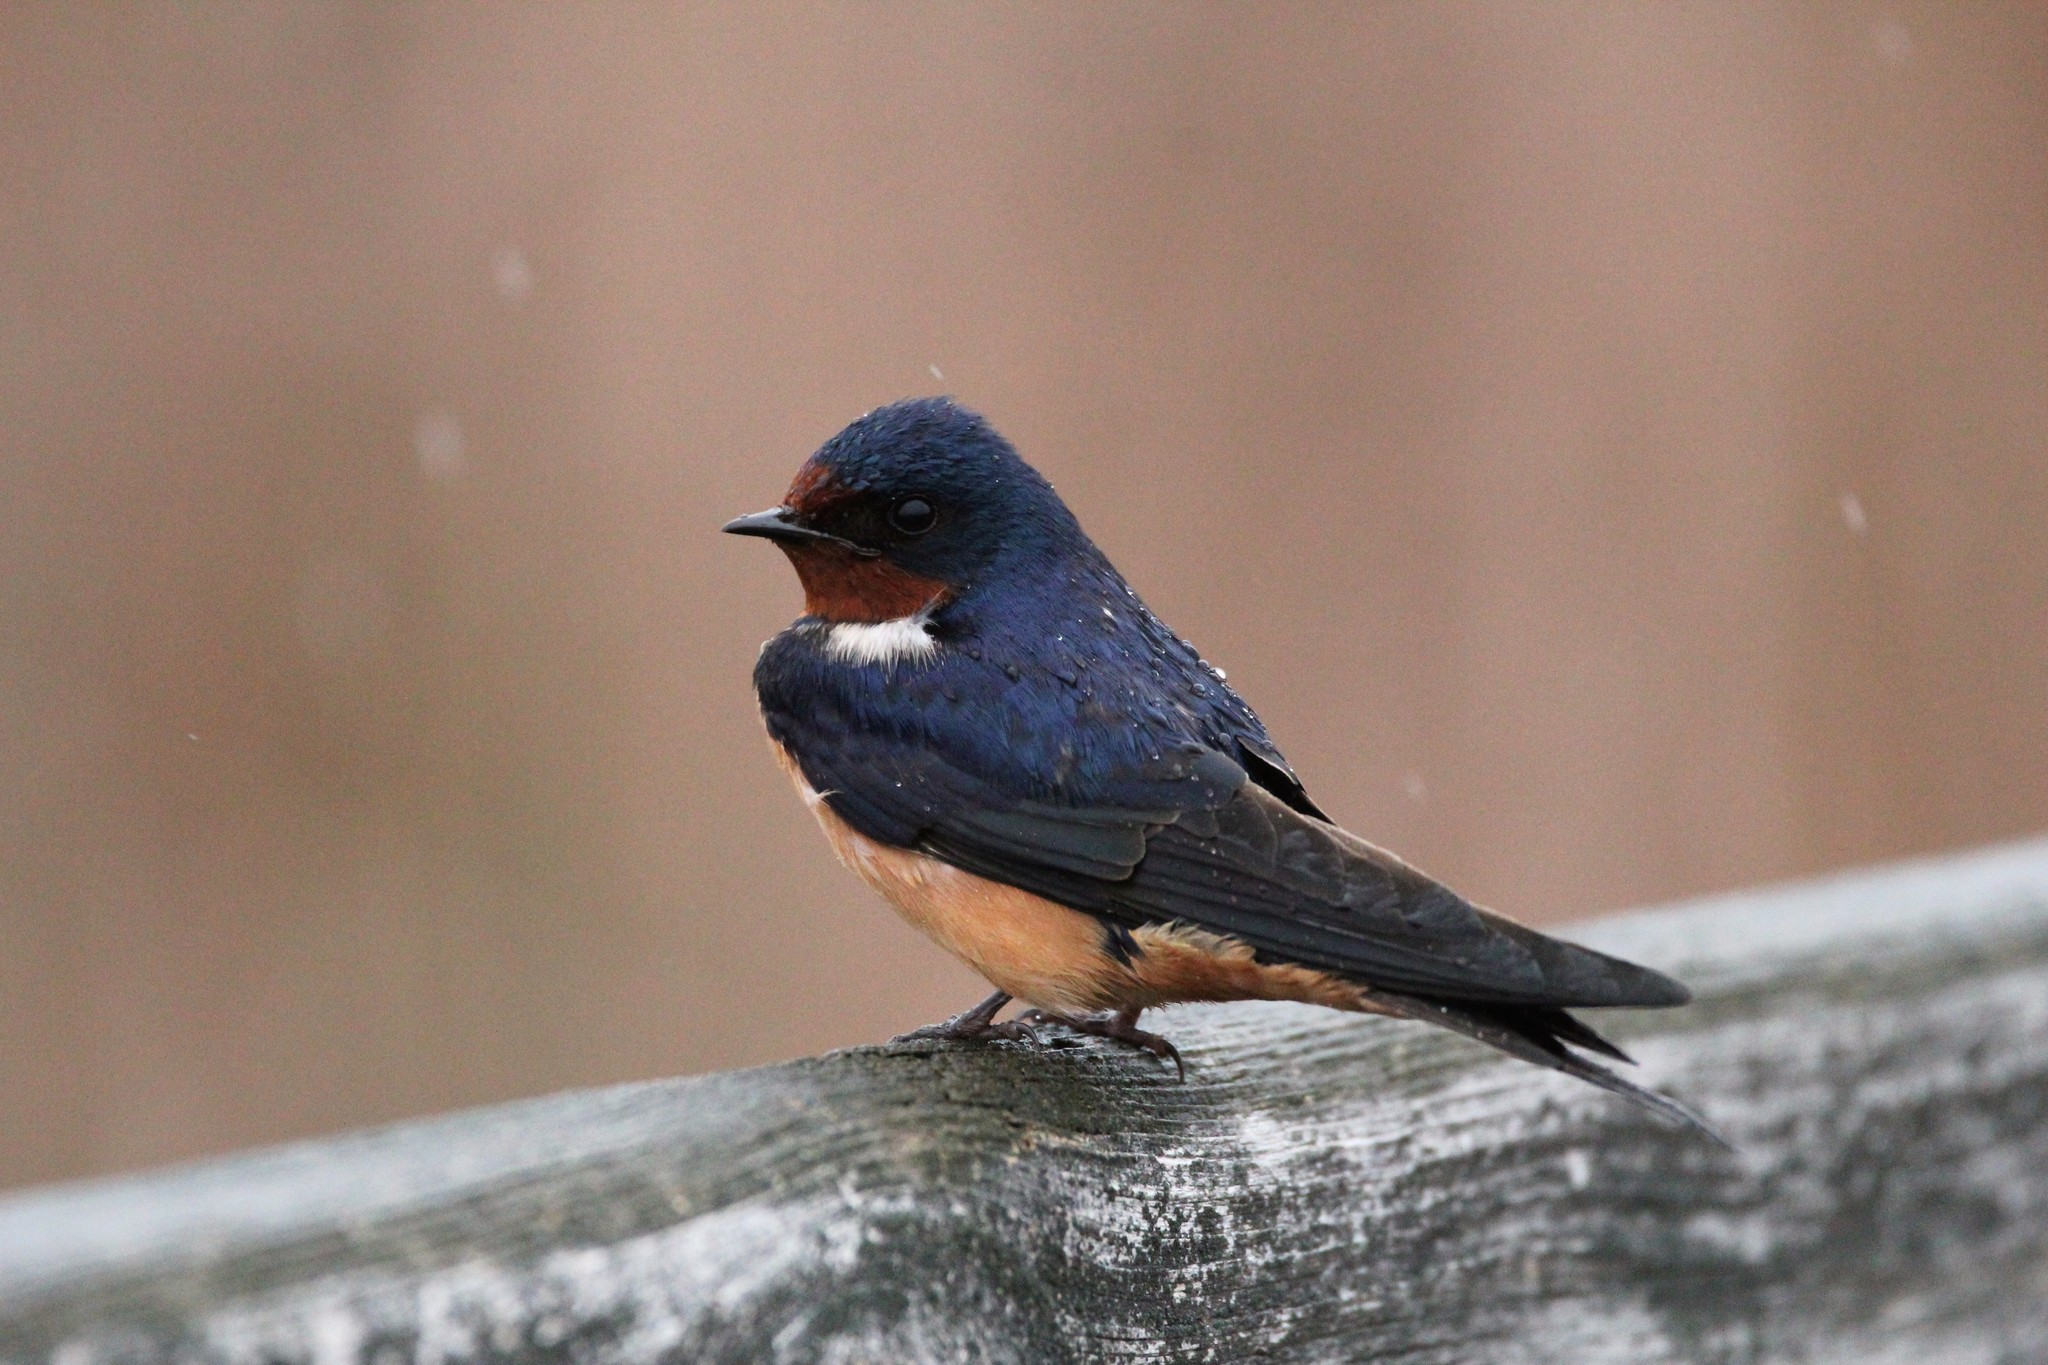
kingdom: Animalia
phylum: Chordata
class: Aves
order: Passeriformes
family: Hirundinidae
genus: Hirundo
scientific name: Hirundo rustica
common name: Barn swallow
